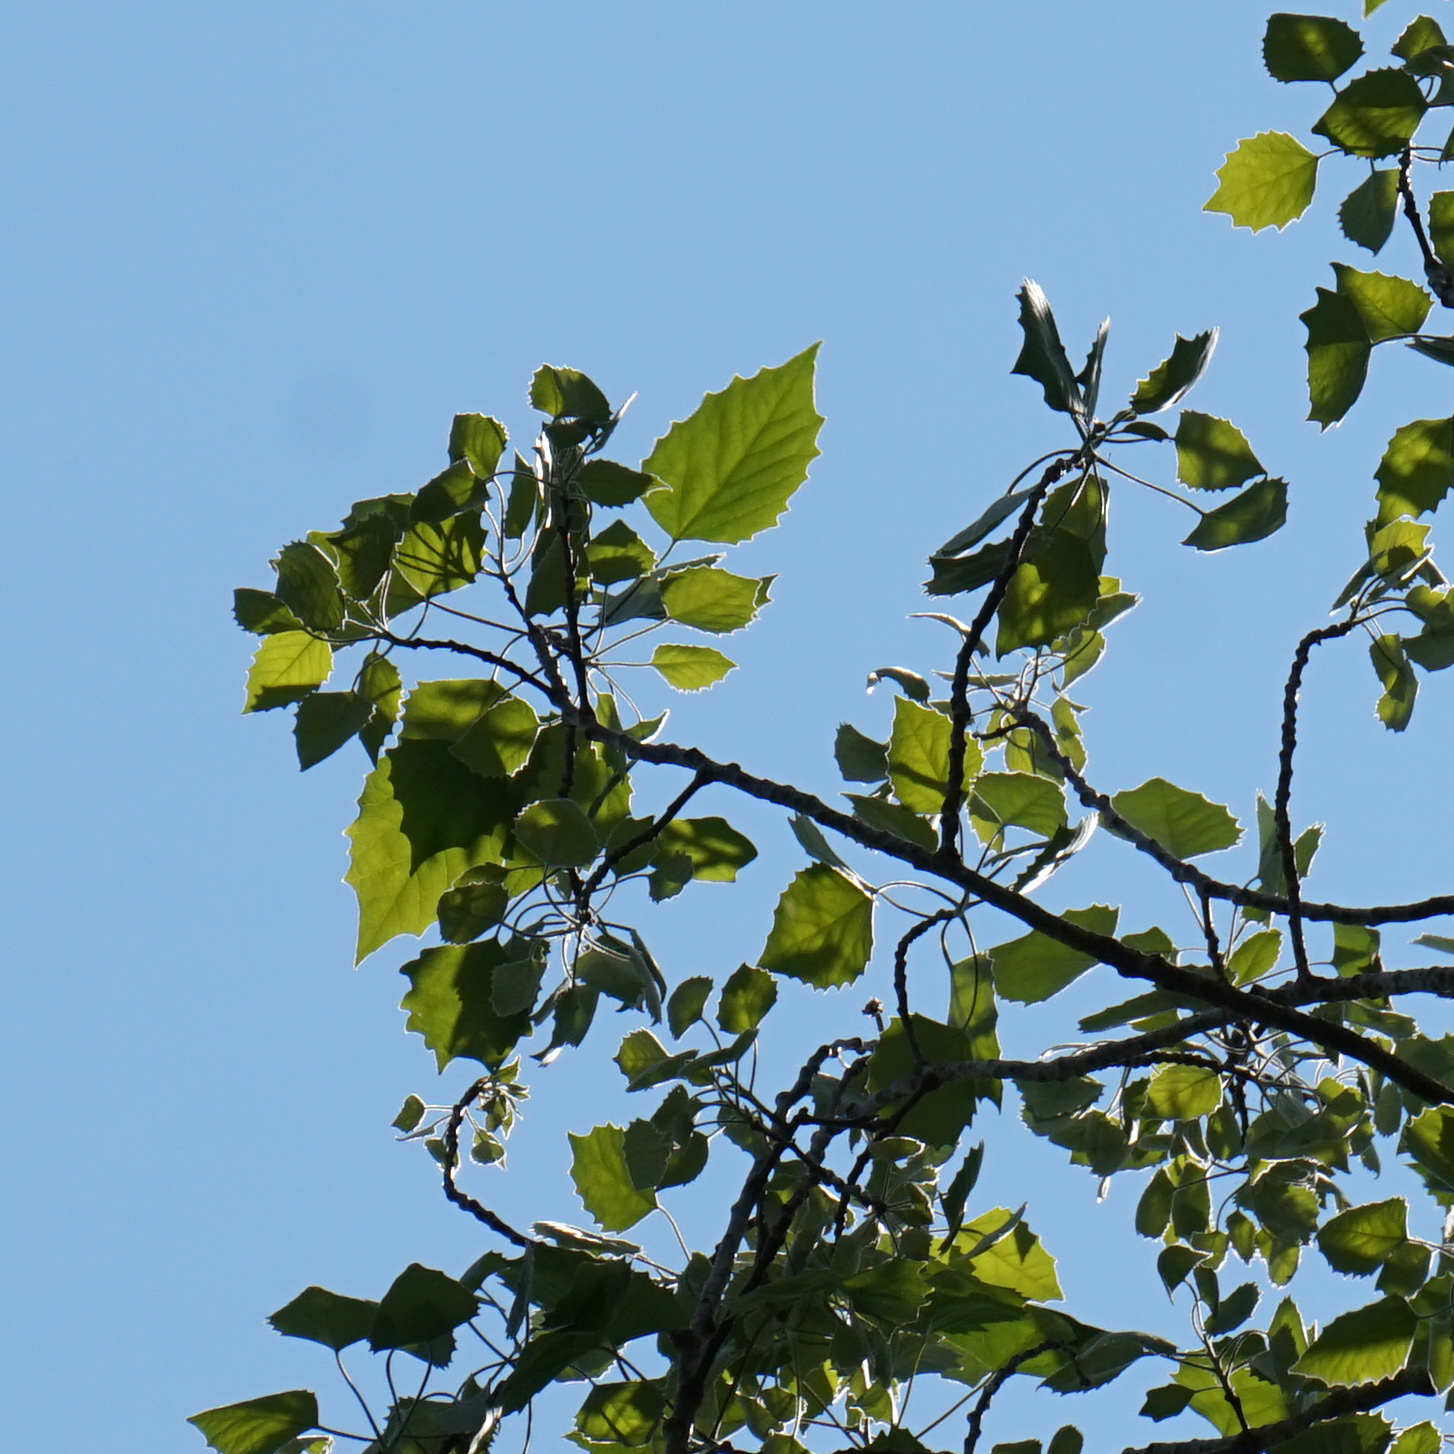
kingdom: Plantae
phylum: Tracheophyta
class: Magnoliopsida
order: Malpighiales
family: Salicaceae
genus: Populus
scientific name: Populus grandidentata
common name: Bigtooth aspen
